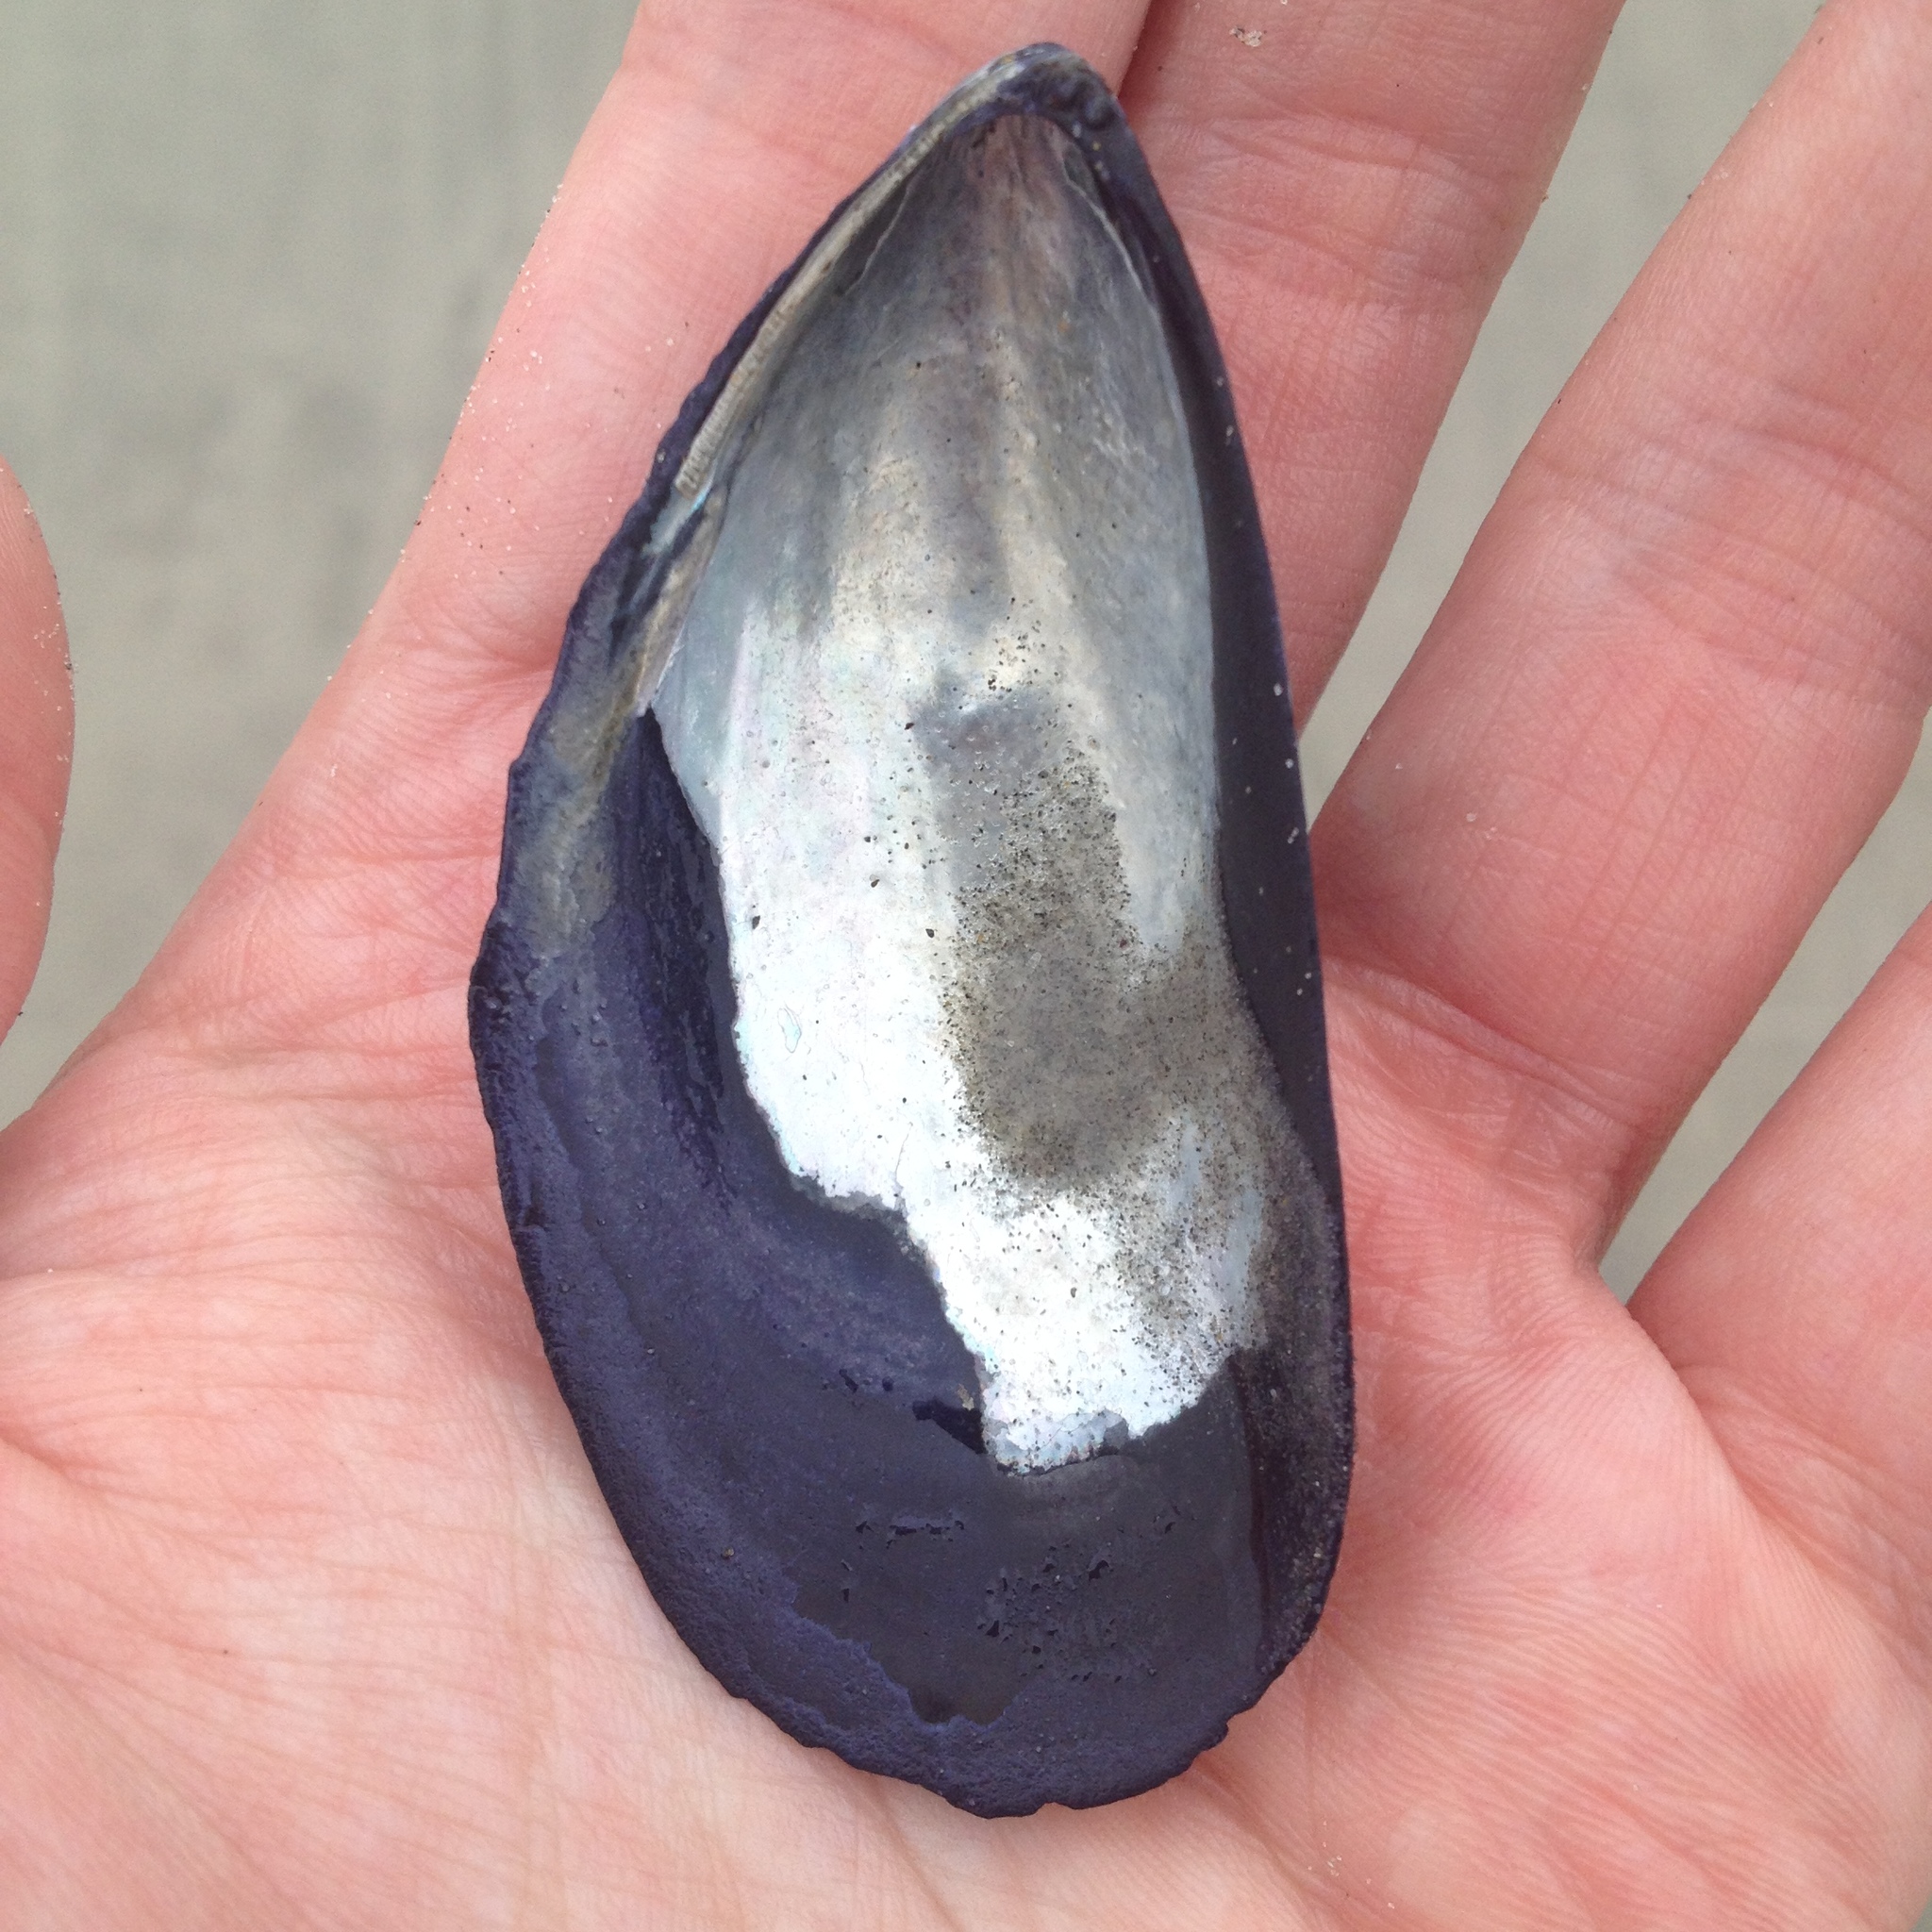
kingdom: Animalia
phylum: Mollusca
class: Bivalvia
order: Mytilida
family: Mytilidae
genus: Mytilus
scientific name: Mytilus edulis
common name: Blue mussel
